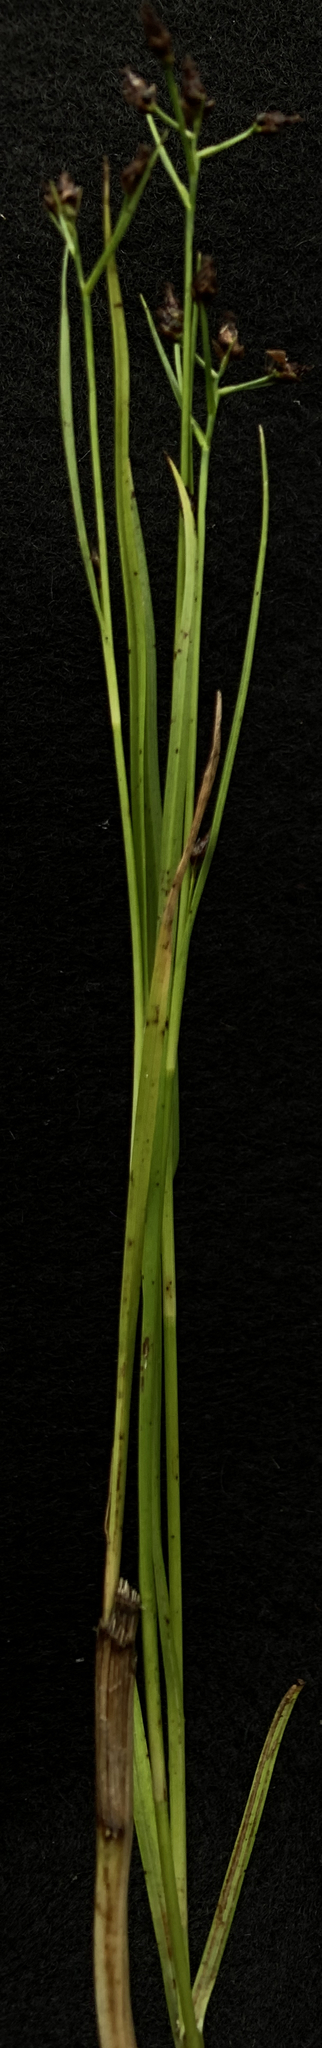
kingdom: Plantae
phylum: Tracheophyta
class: Liliopsida
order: Poales
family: Cyperaceae
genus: Rhynchospora
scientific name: Rhynchospora nitens
